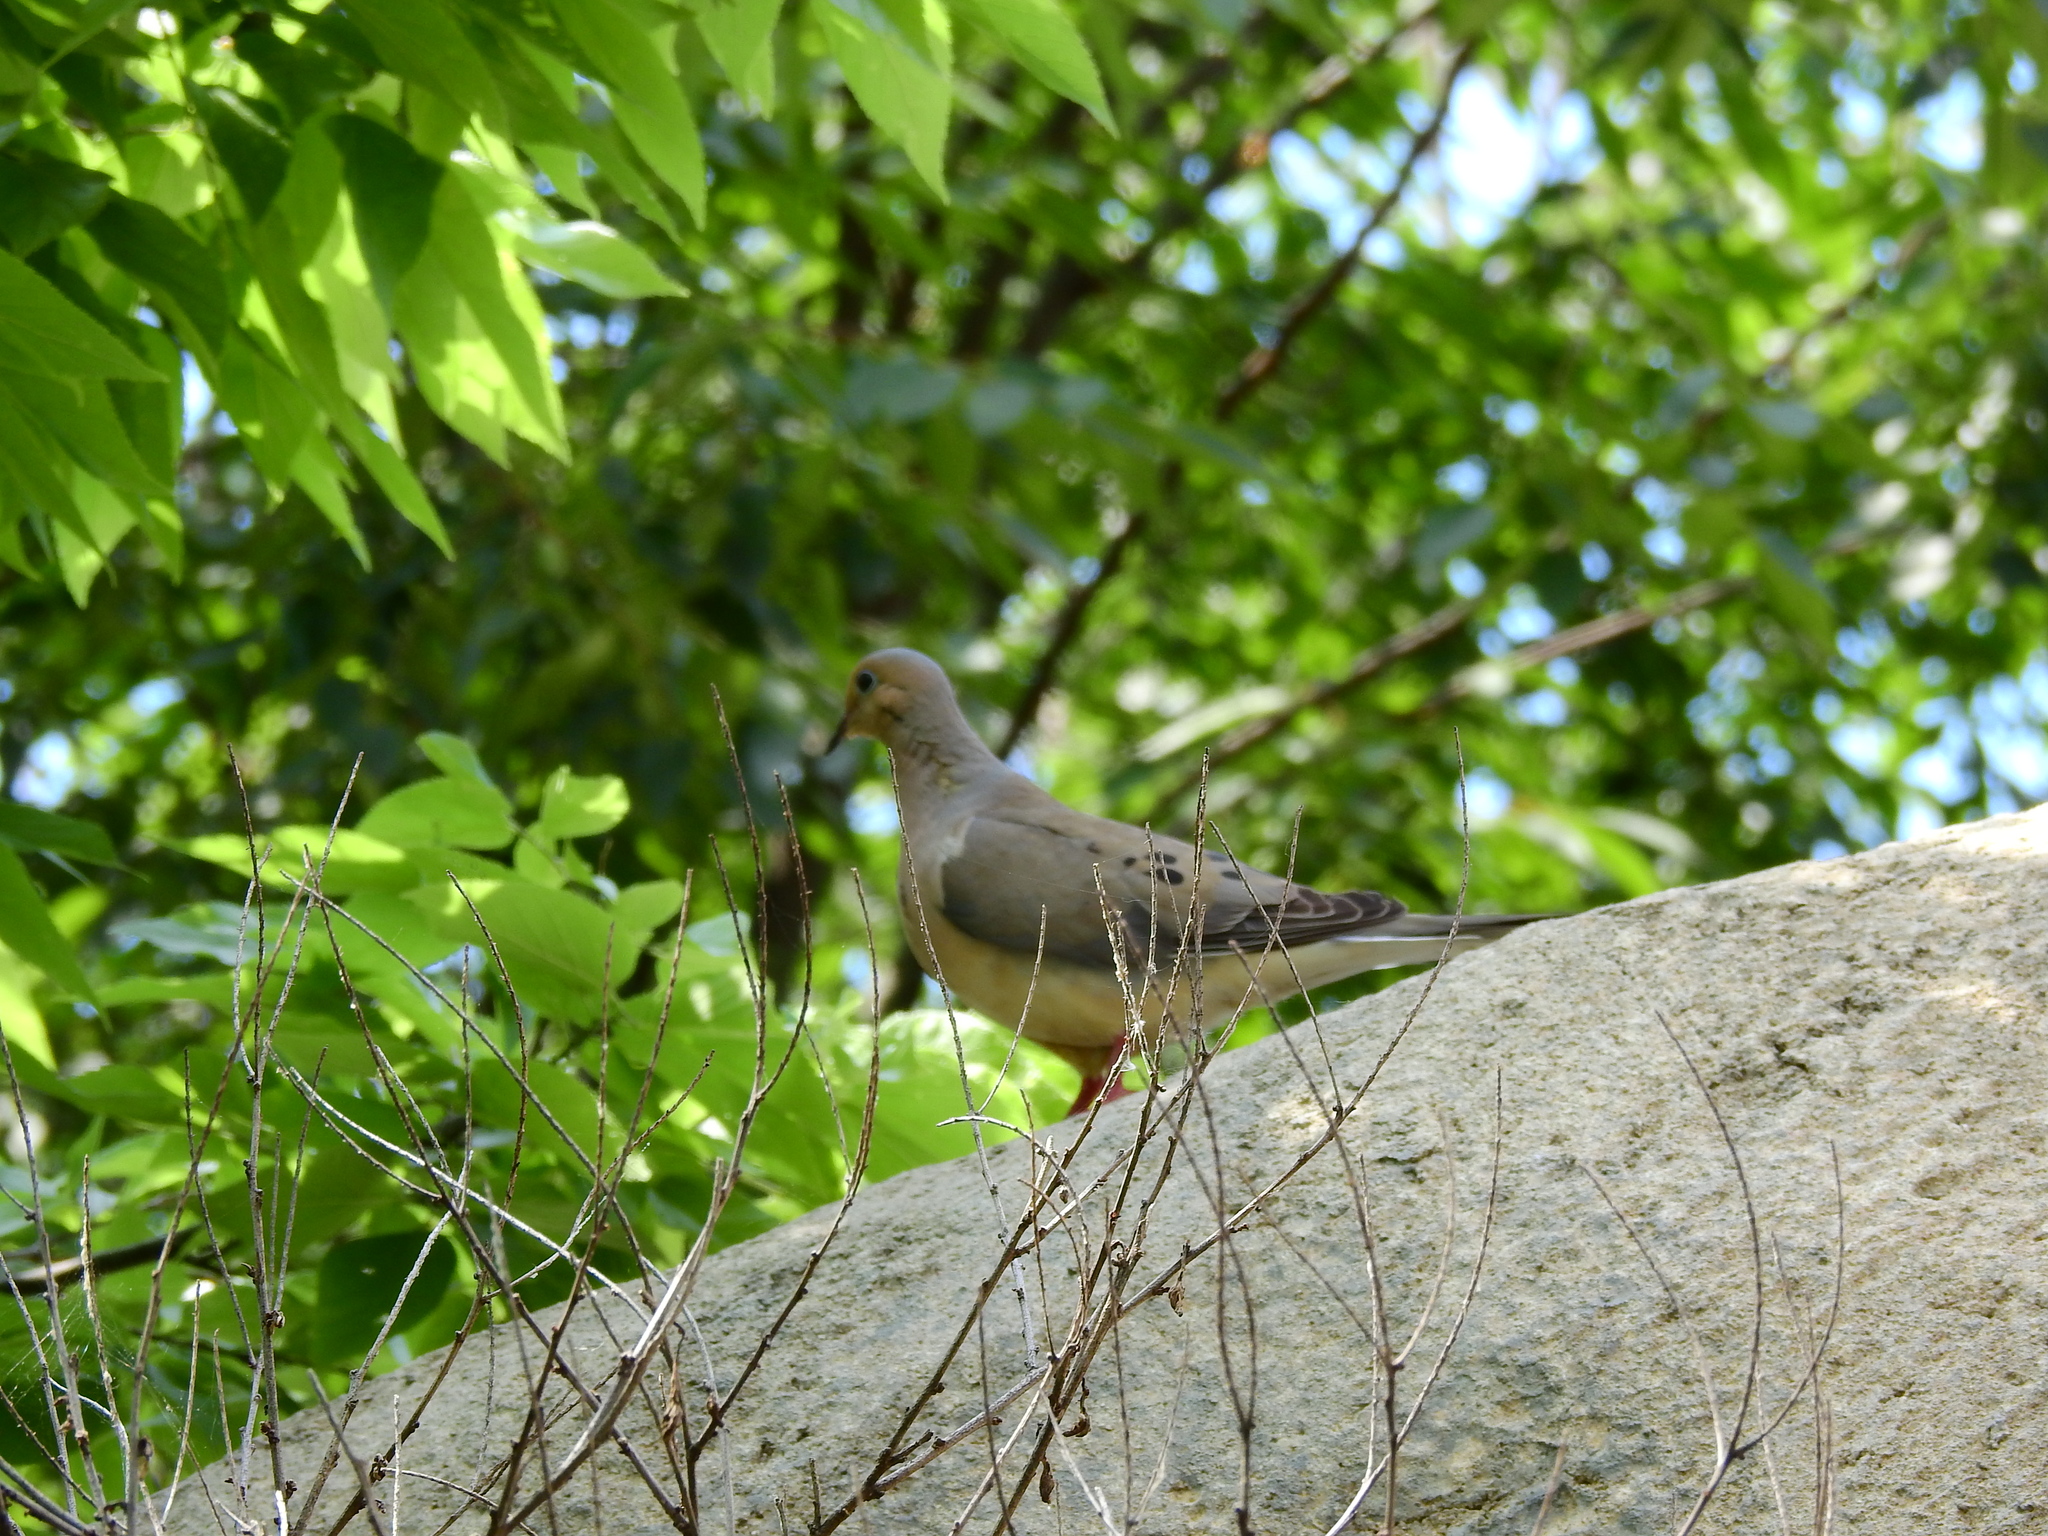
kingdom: Animalia
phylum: Chordata
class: Aves
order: Columbiformes
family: Columbidae
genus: Zenaida
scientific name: Zenaida macroura
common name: Mourning dove
